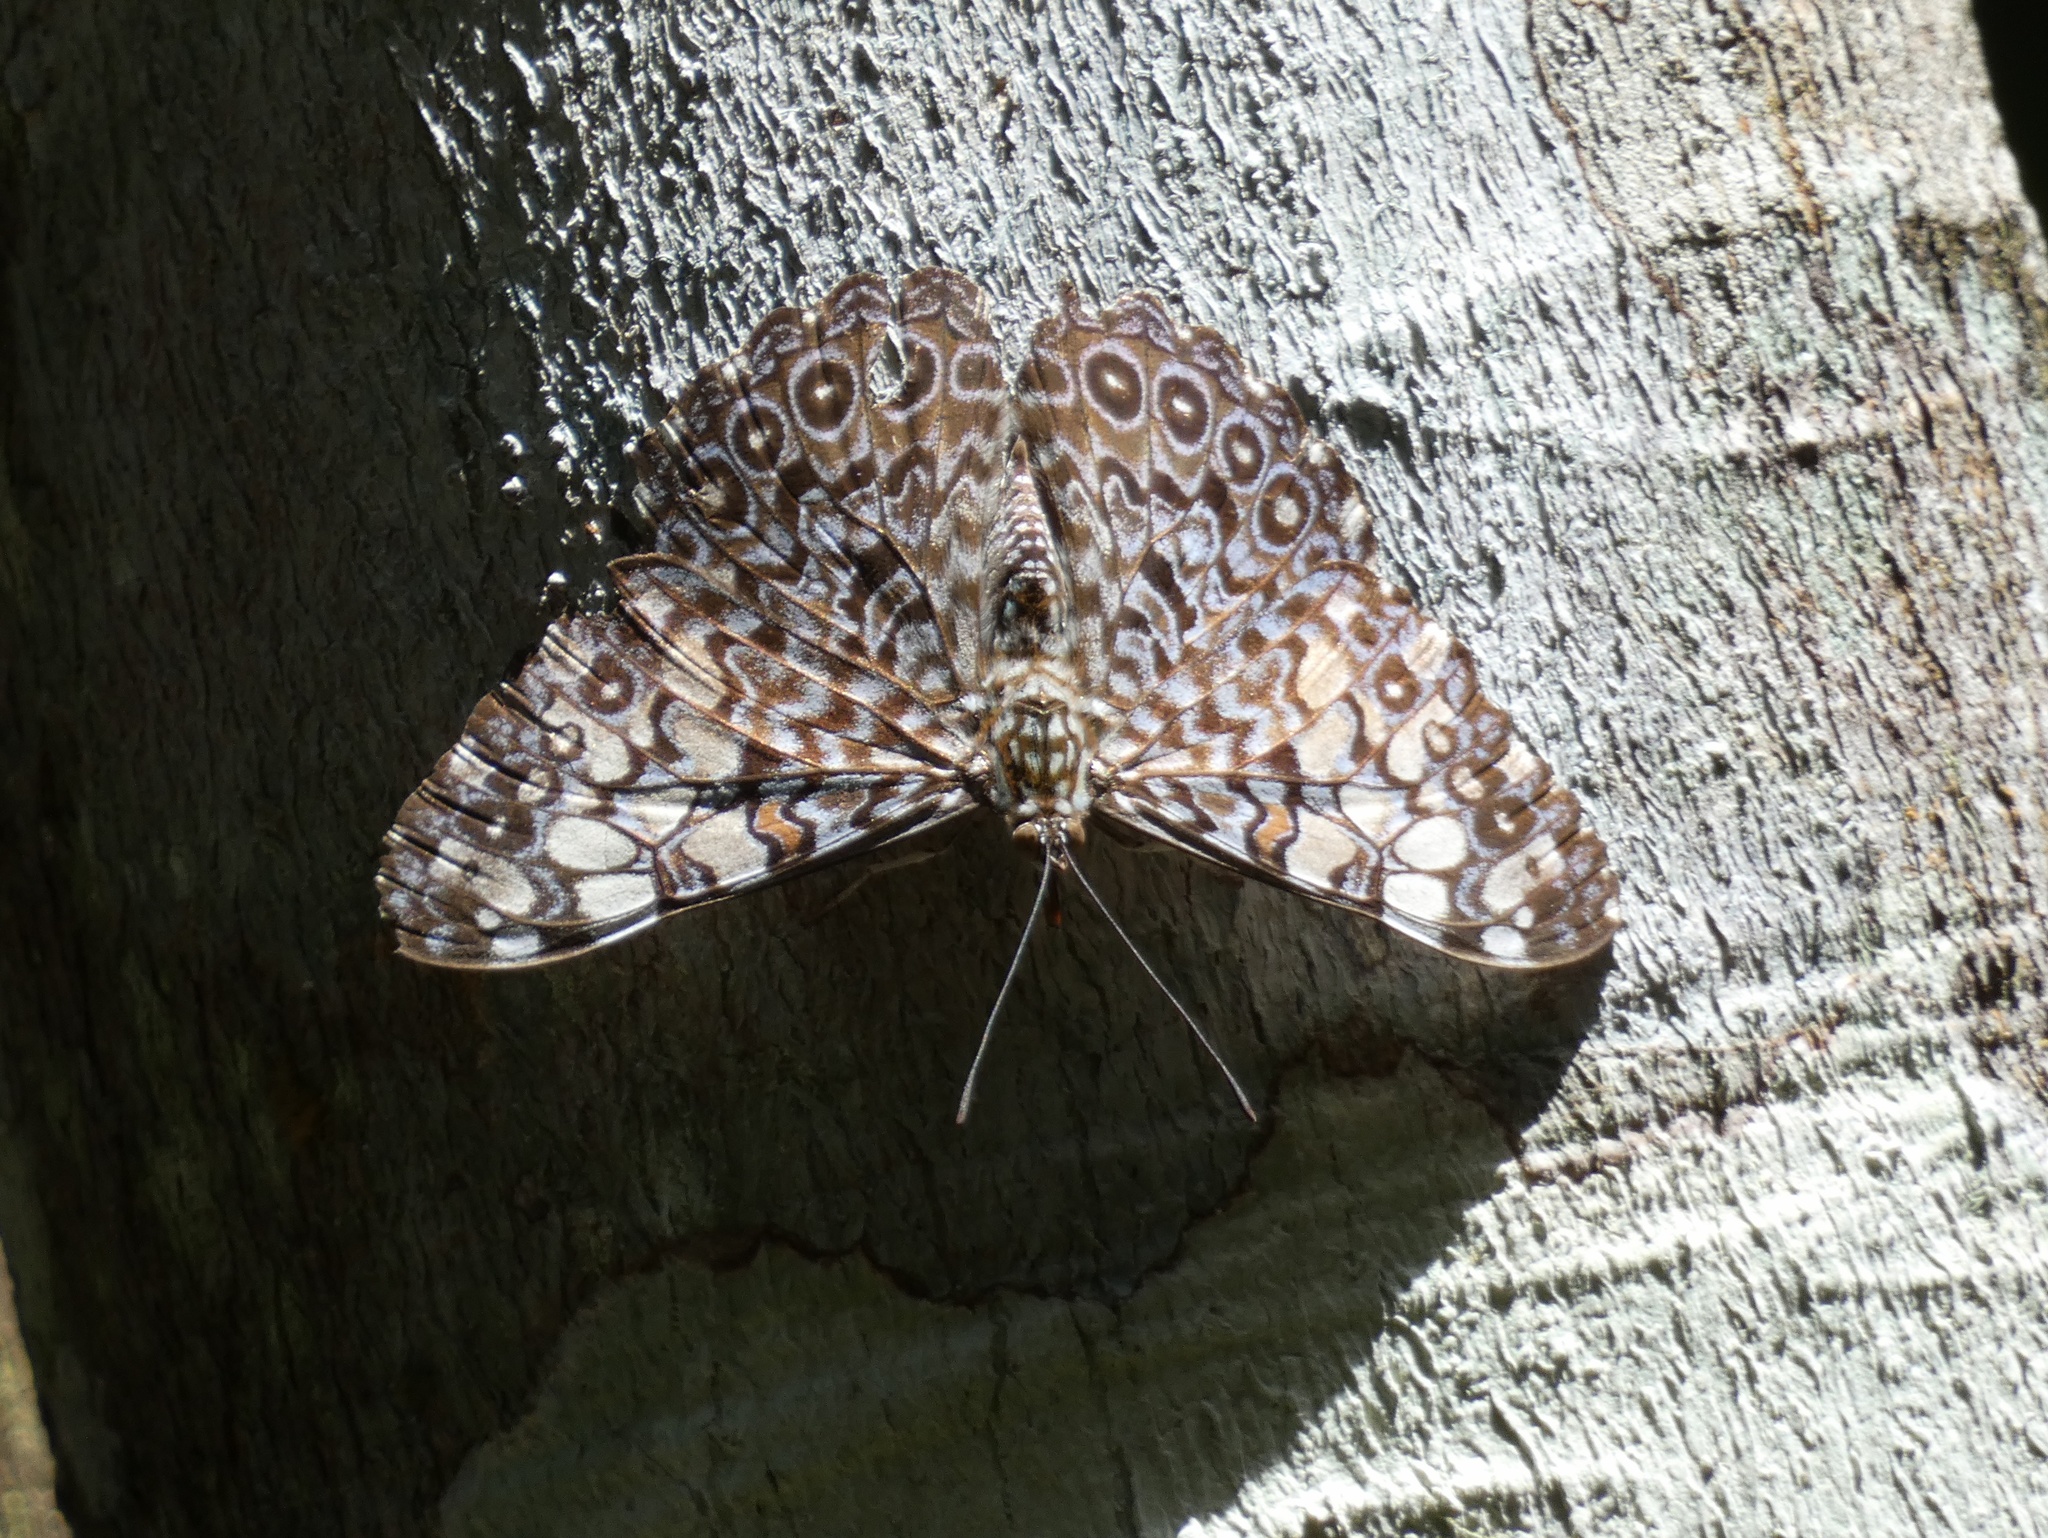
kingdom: Animalia
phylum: Arthropoda
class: Insecta
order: Lepidoptera
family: Nymphalidae
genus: Hamadryas
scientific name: Hamadryas feronia
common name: Variable cracker
